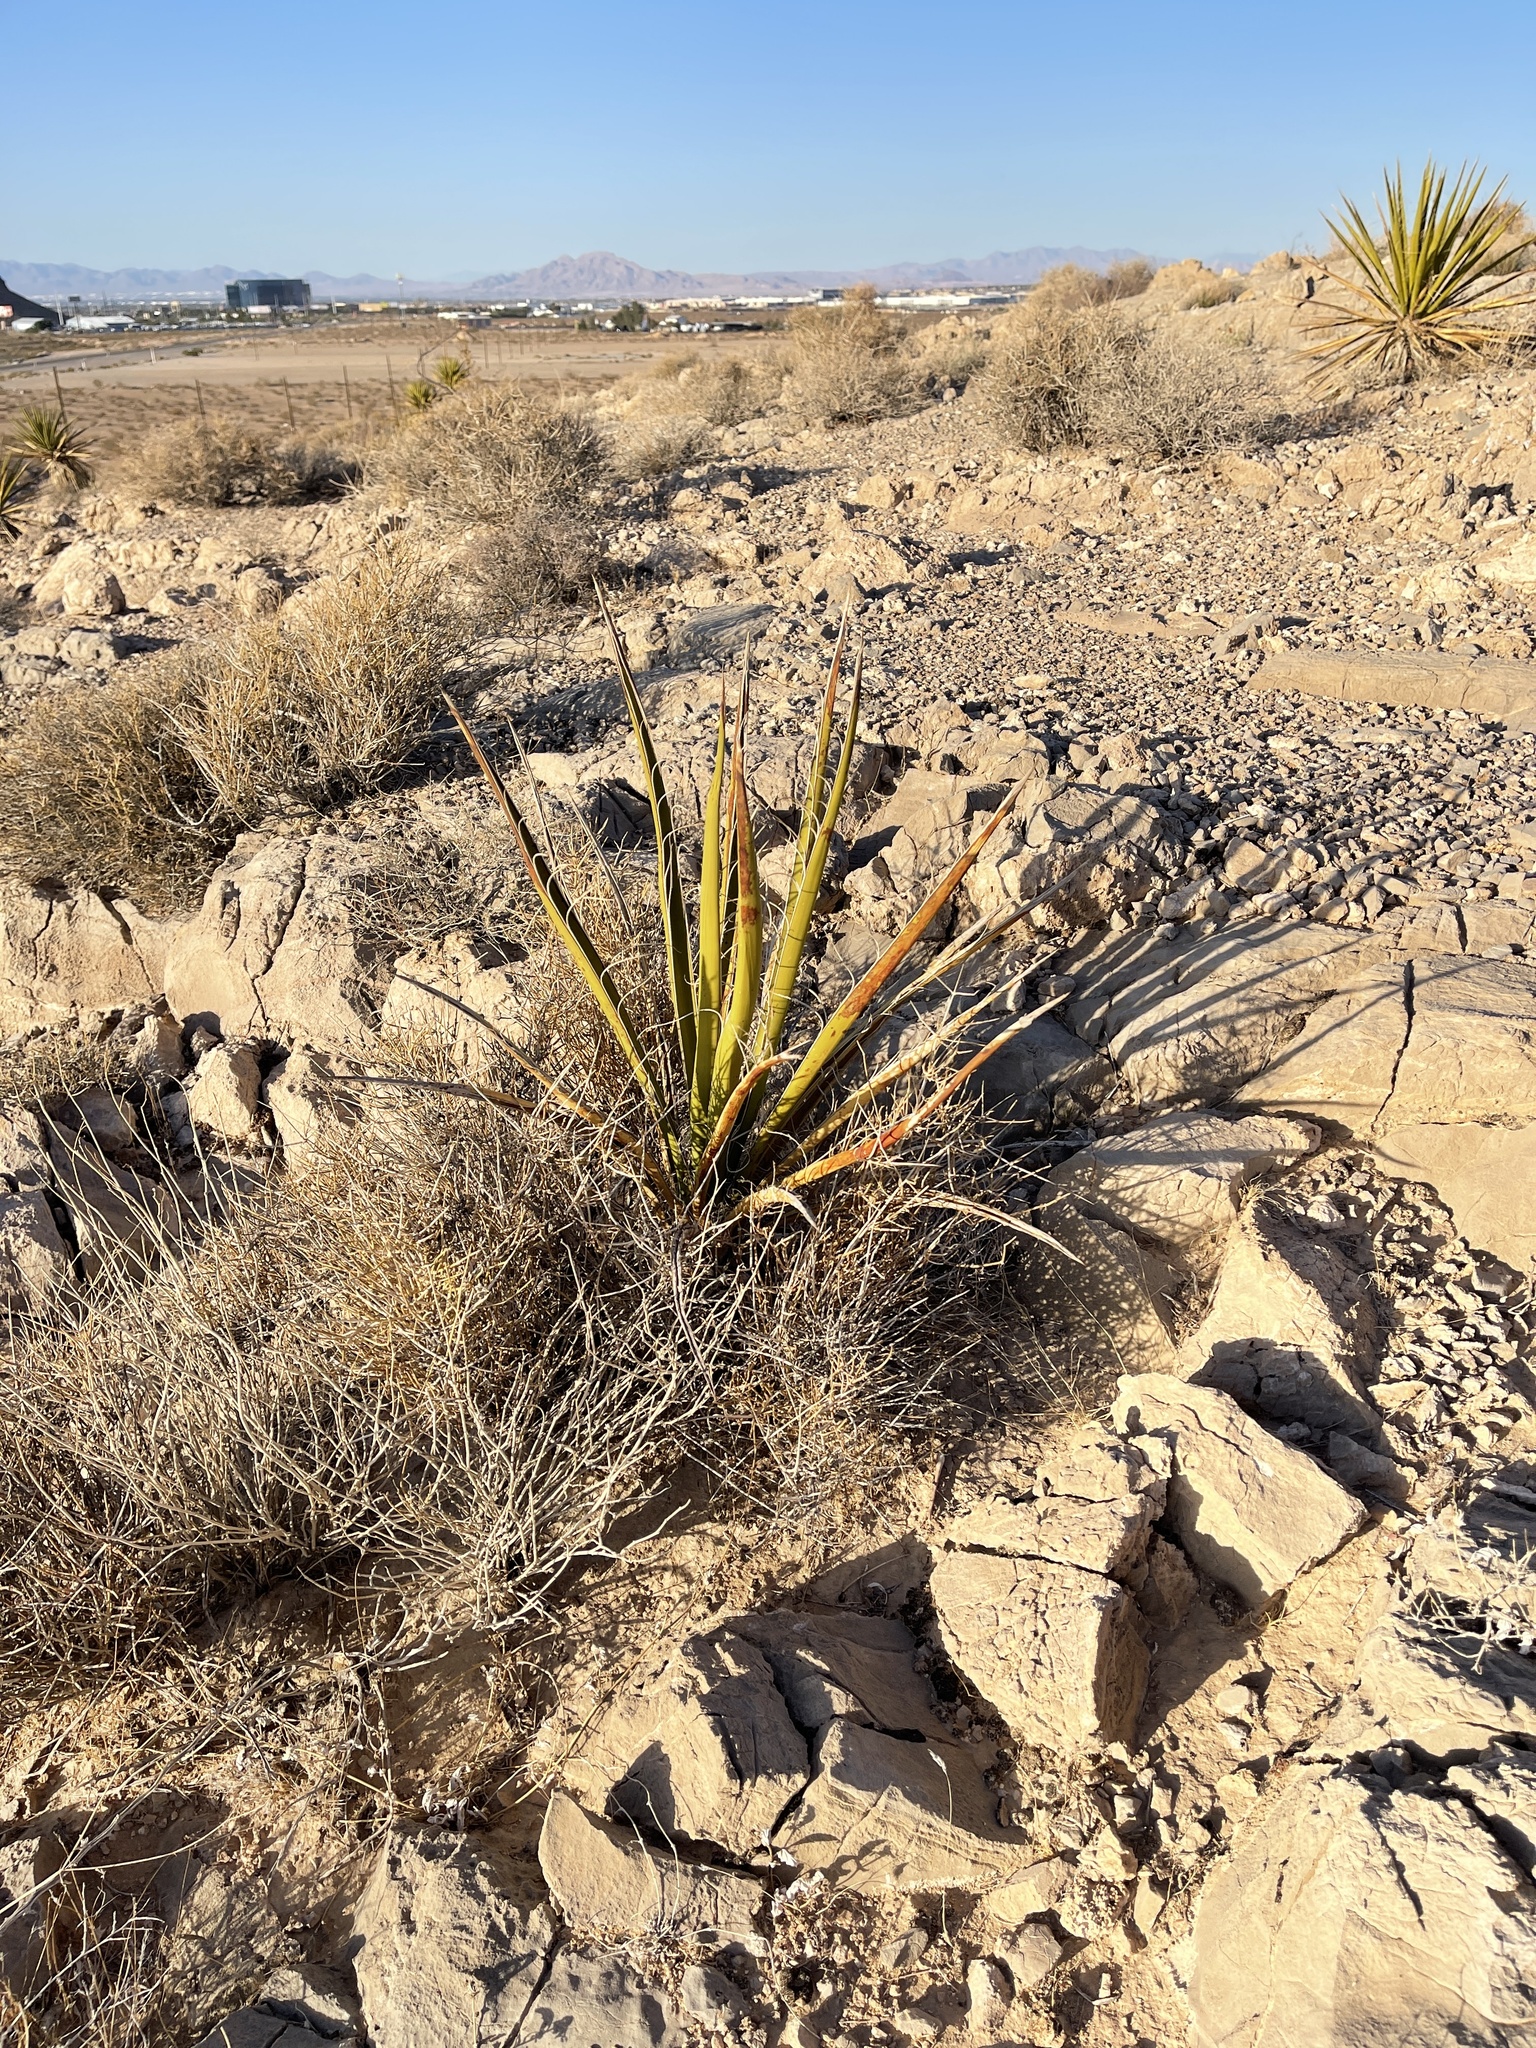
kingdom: Plantae
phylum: Tracheophyta
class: Liliopsida
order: Asparagales
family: Asparagaceae
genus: Yucca
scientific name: Yucca schidigera
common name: Mojave yucca
